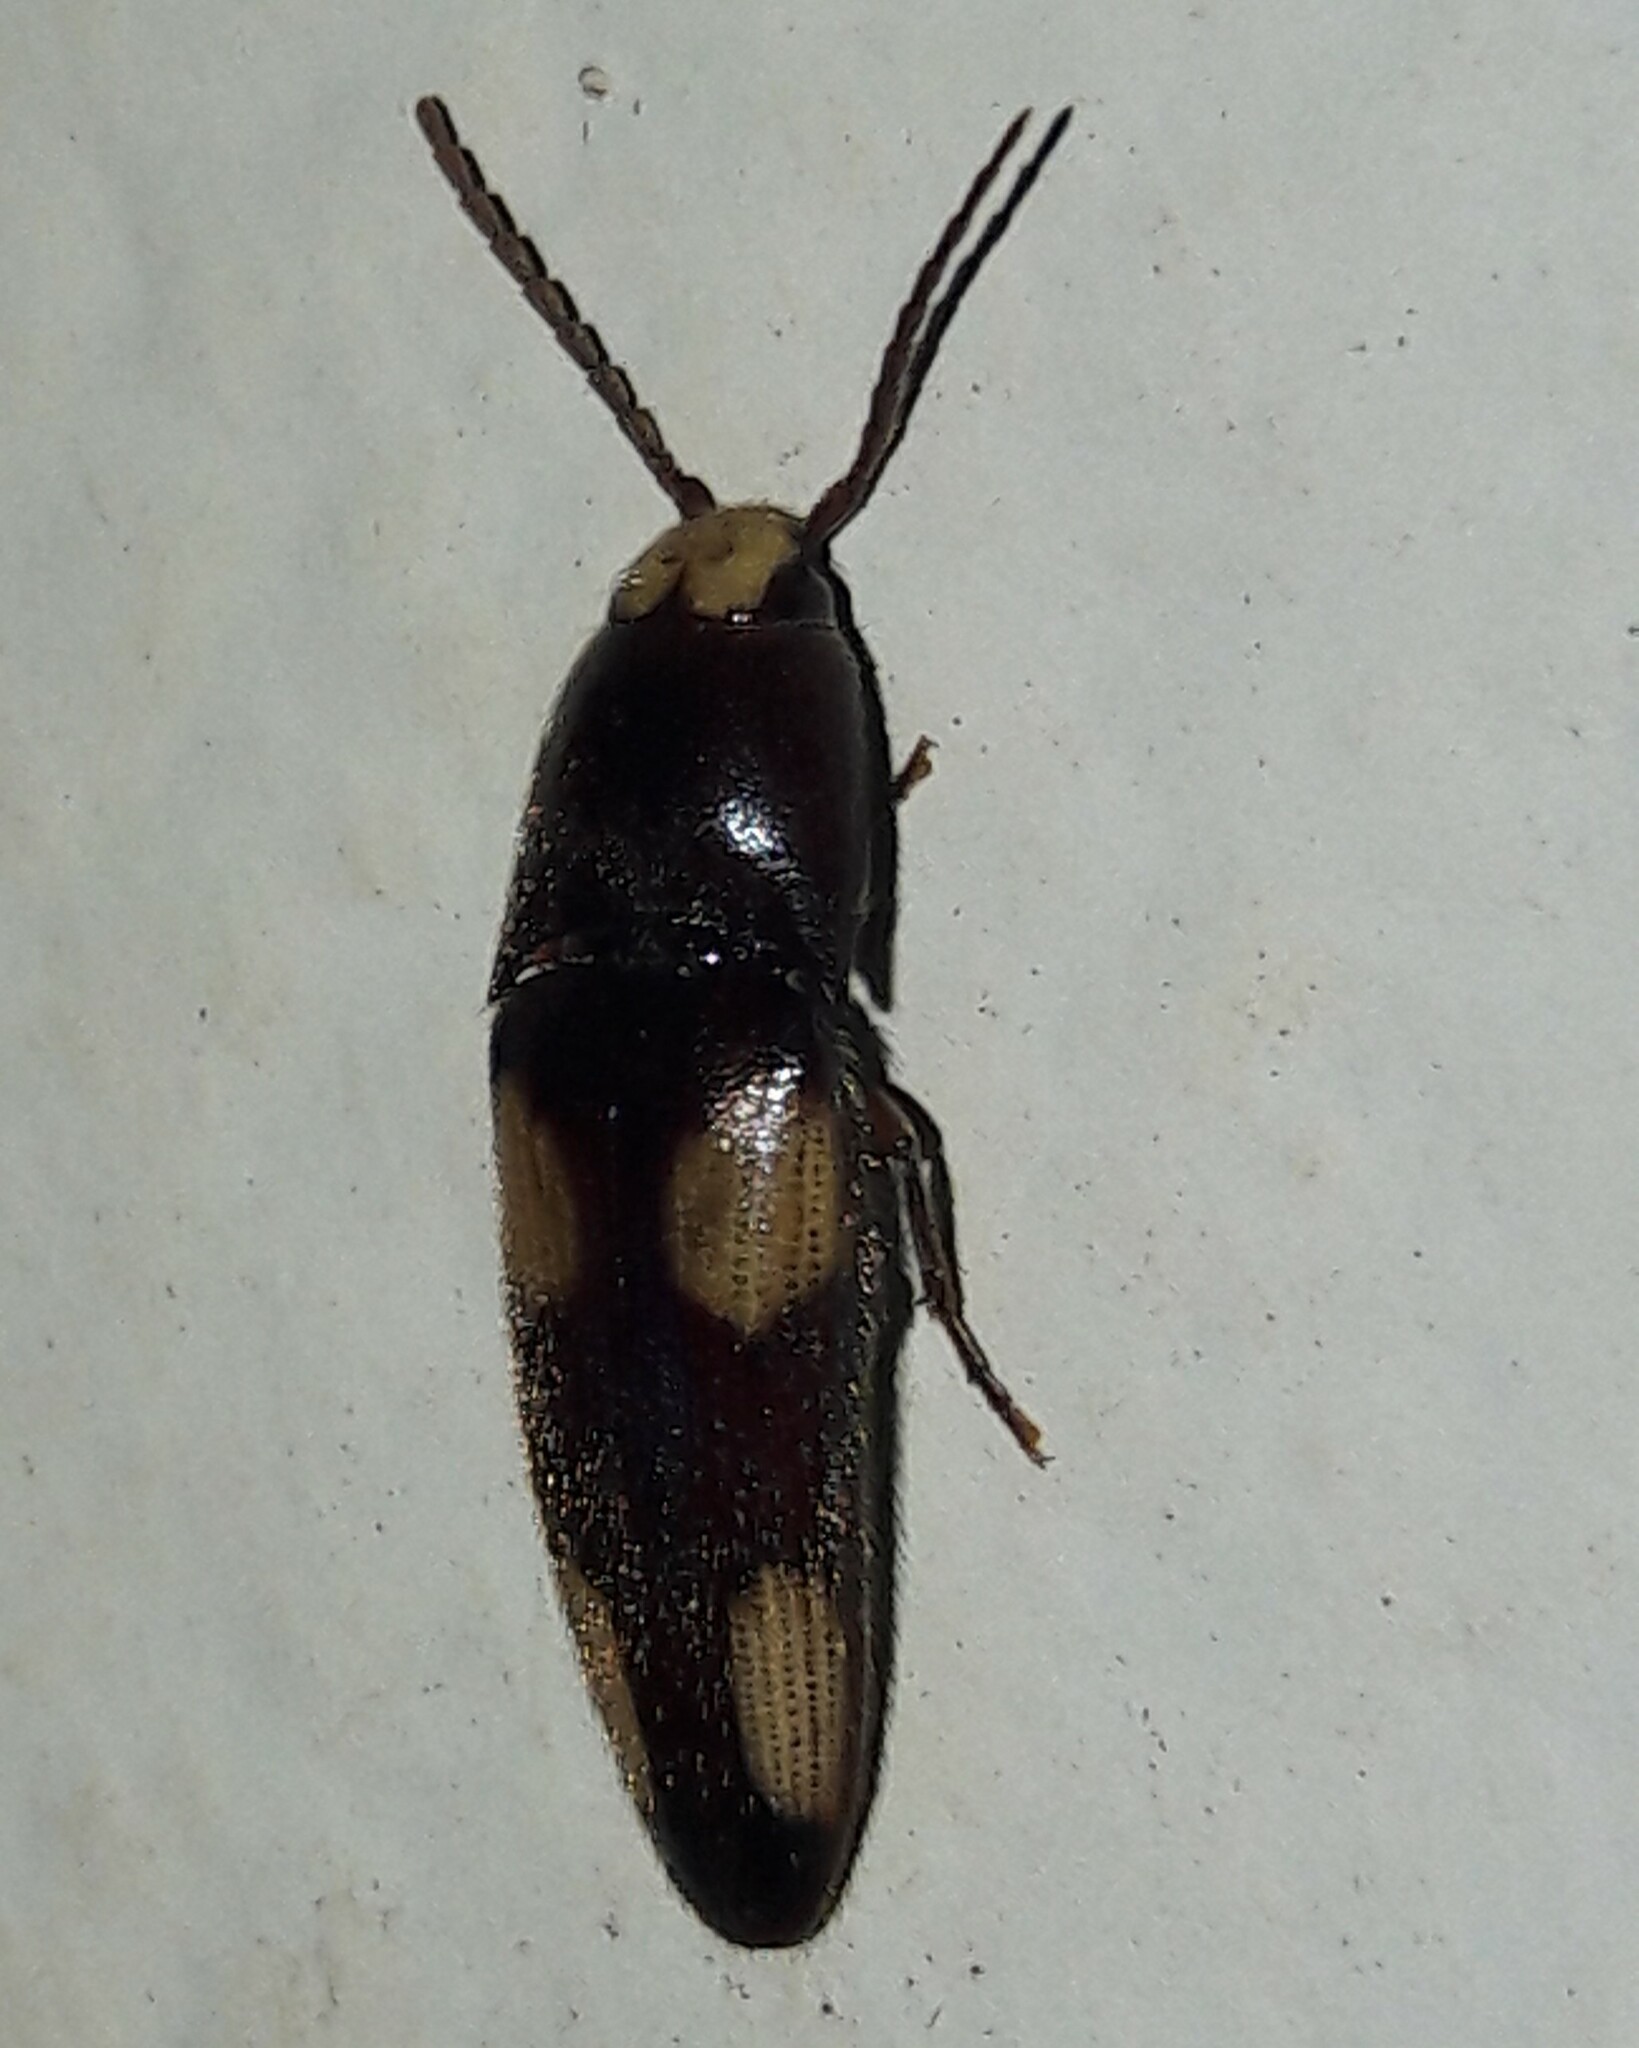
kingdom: Animalia
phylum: Arthropoda
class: Insecta
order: Coleoptera
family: Elateridae
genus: Physorhinus
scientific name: Physorhinus erythrocephalus
